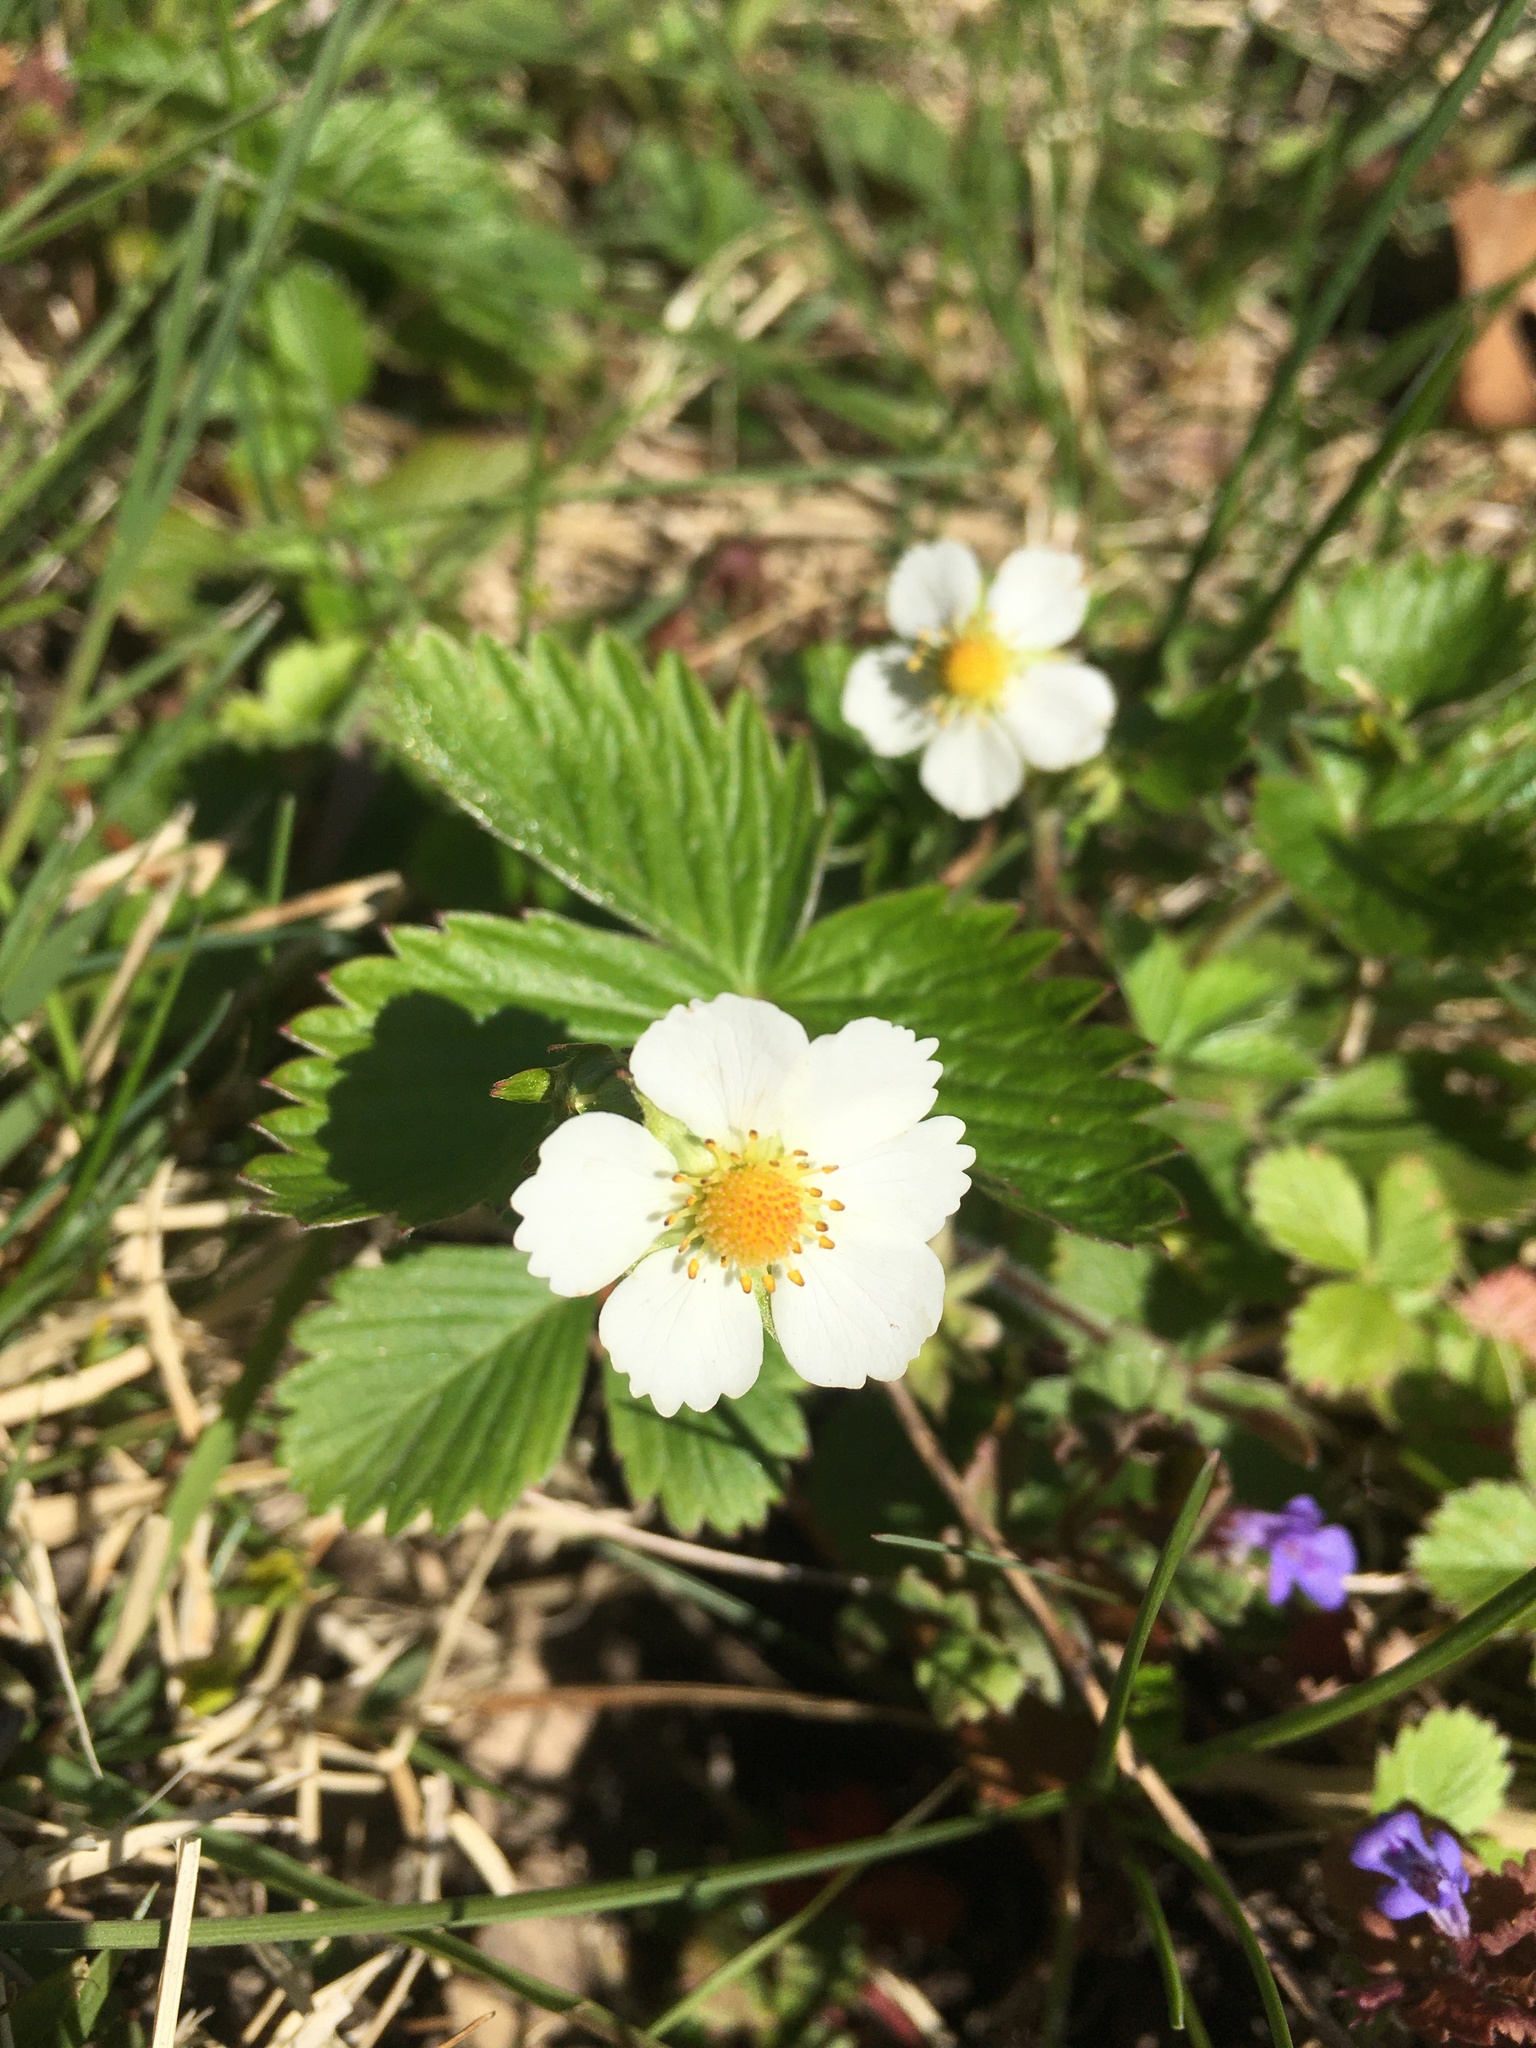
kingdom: Plantae
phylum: Tracheophyta
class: Magnoliopsida
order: Rosales
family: Rosaceae
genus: Fragaria
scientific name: Fragaria vesca
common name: Wild strawberry
